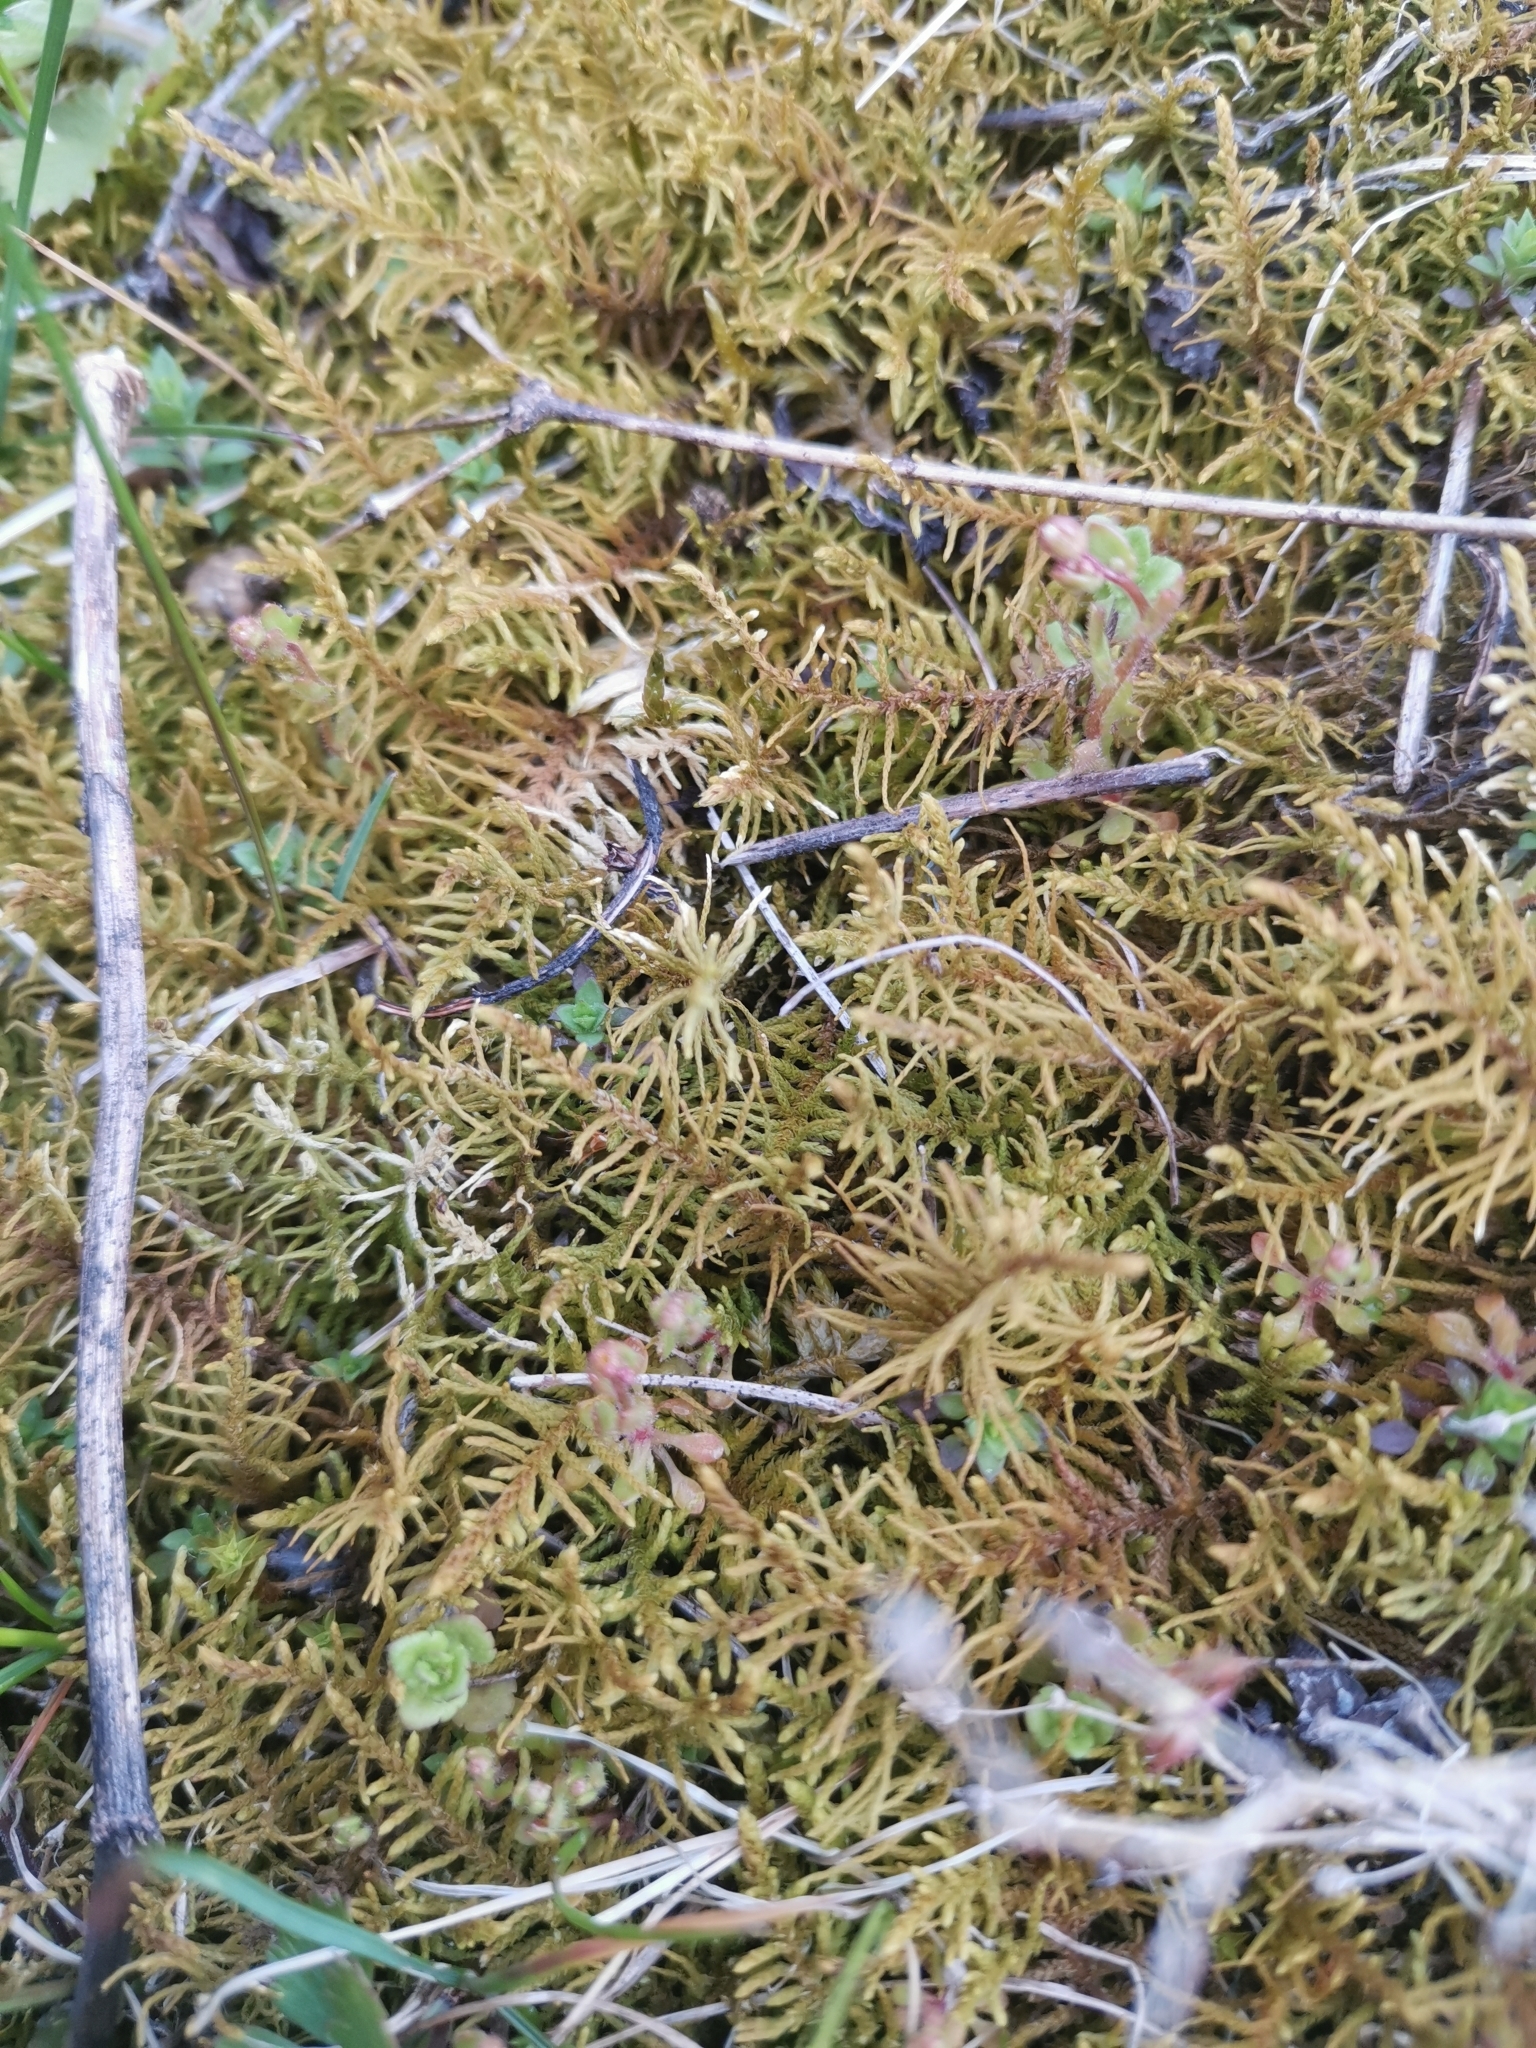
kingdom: Plantae
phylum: Bryophyta
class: Bryopsida
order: Hypnales
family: Thuidiaceae
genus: Abietinella
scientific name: Abietinella abietina
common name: Wiry fern moss
